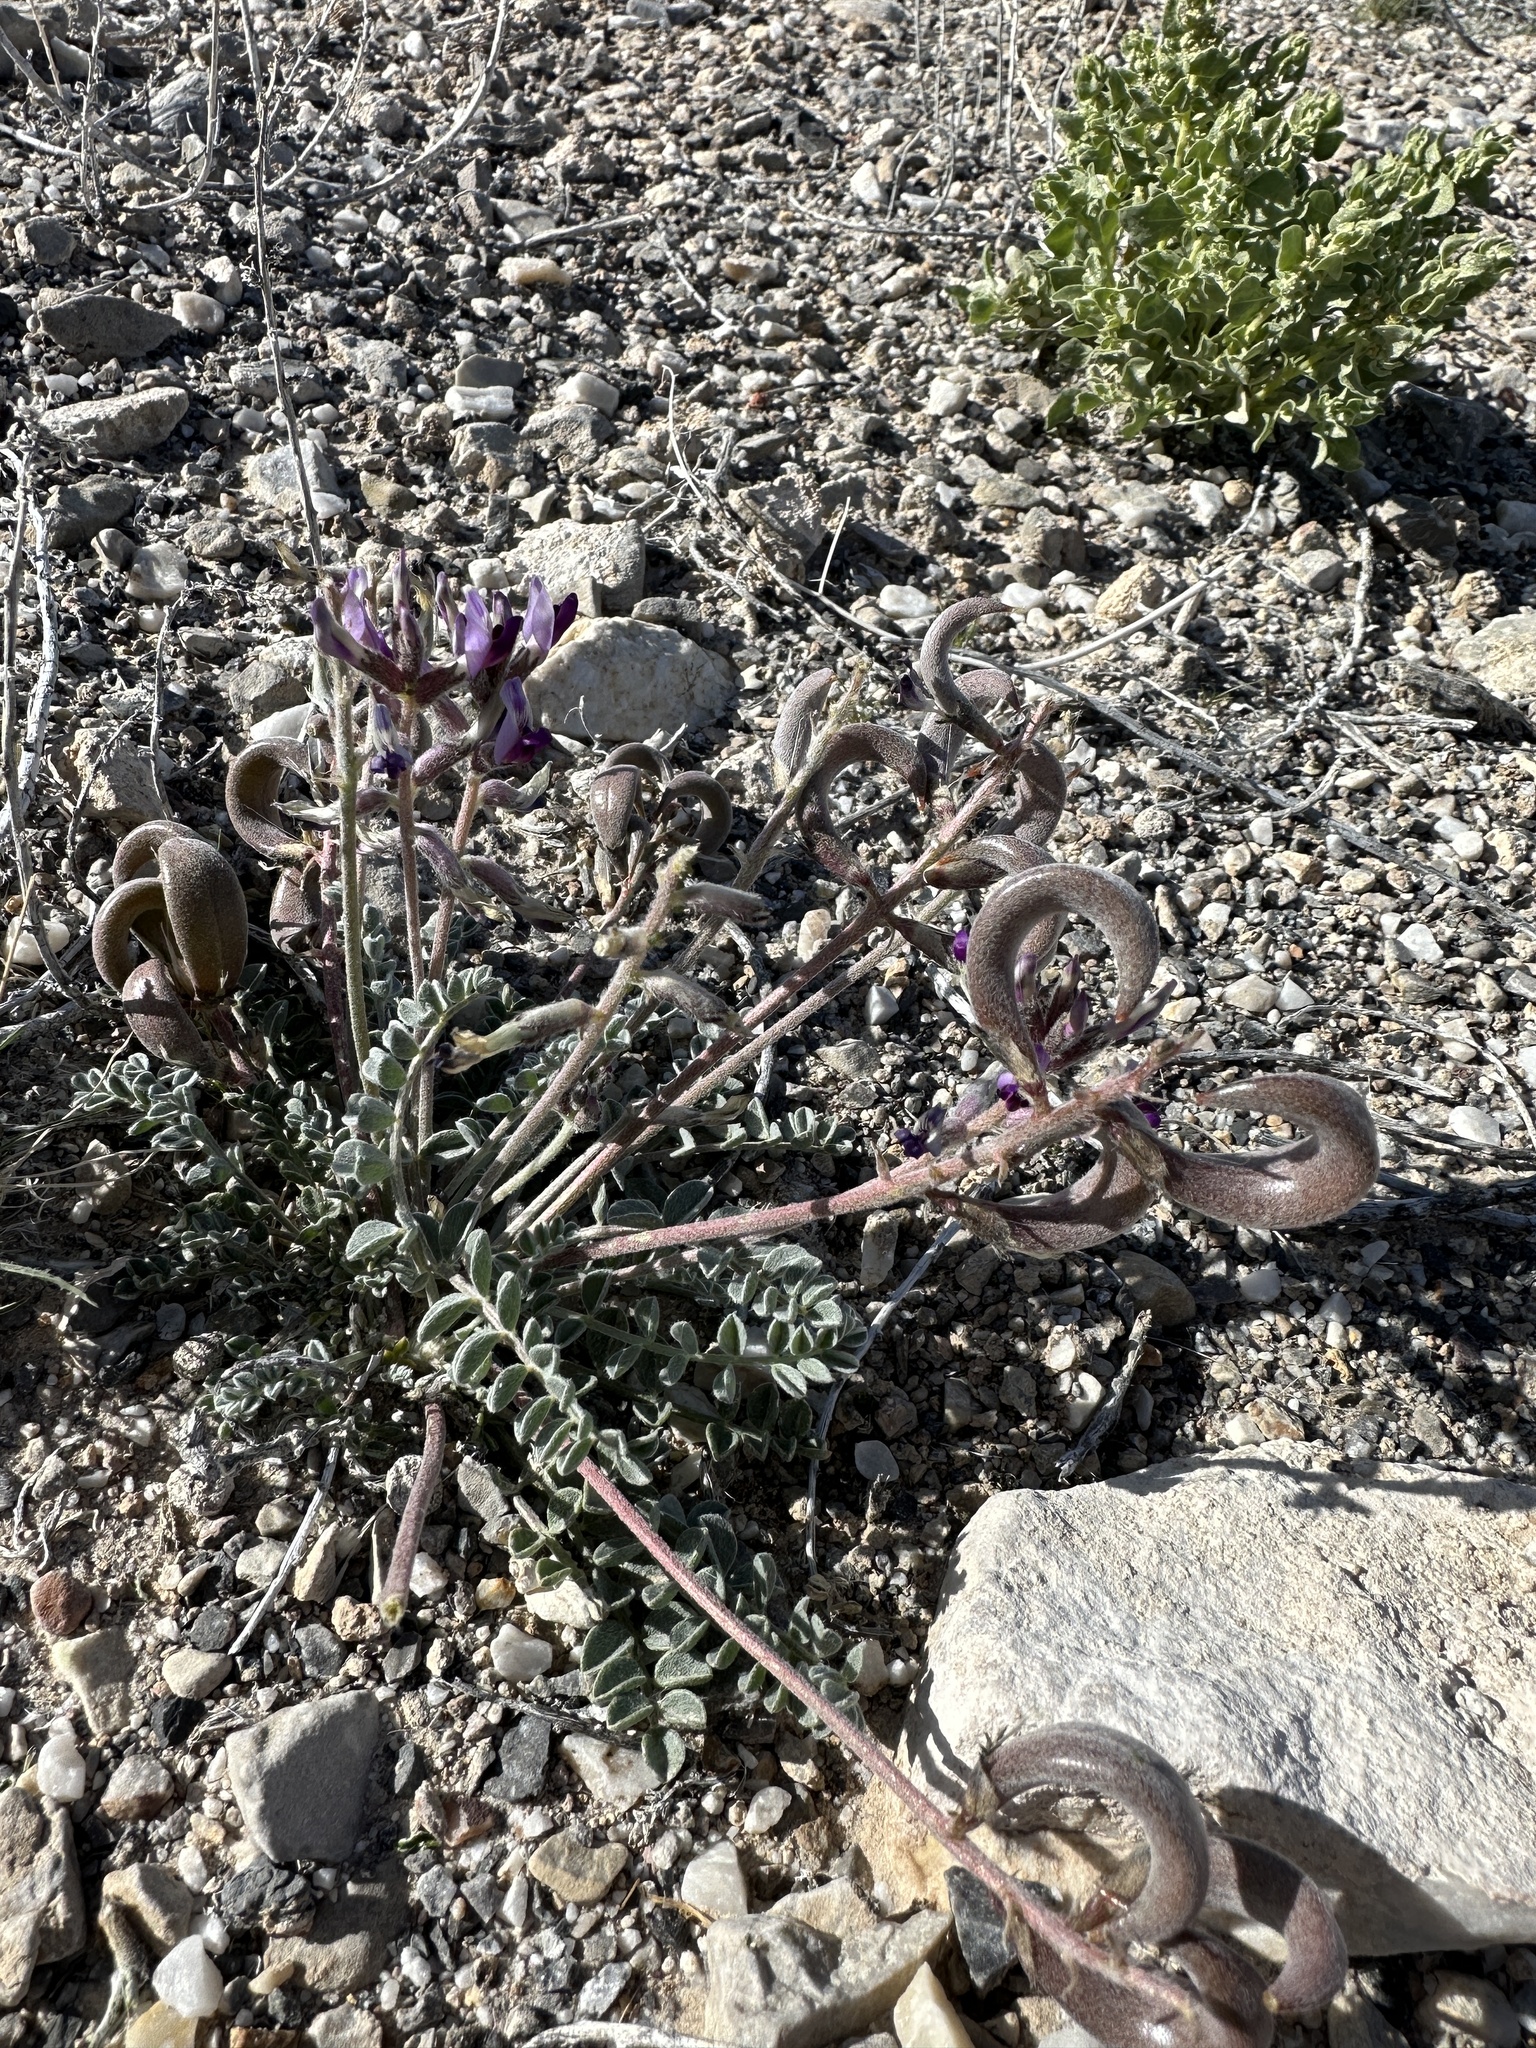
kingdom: Plantae
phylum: Tracheophyta
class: Magnoliopsida
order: Fabales
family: Fabaceae
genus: Astragalus
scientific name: Astragalus layneae
